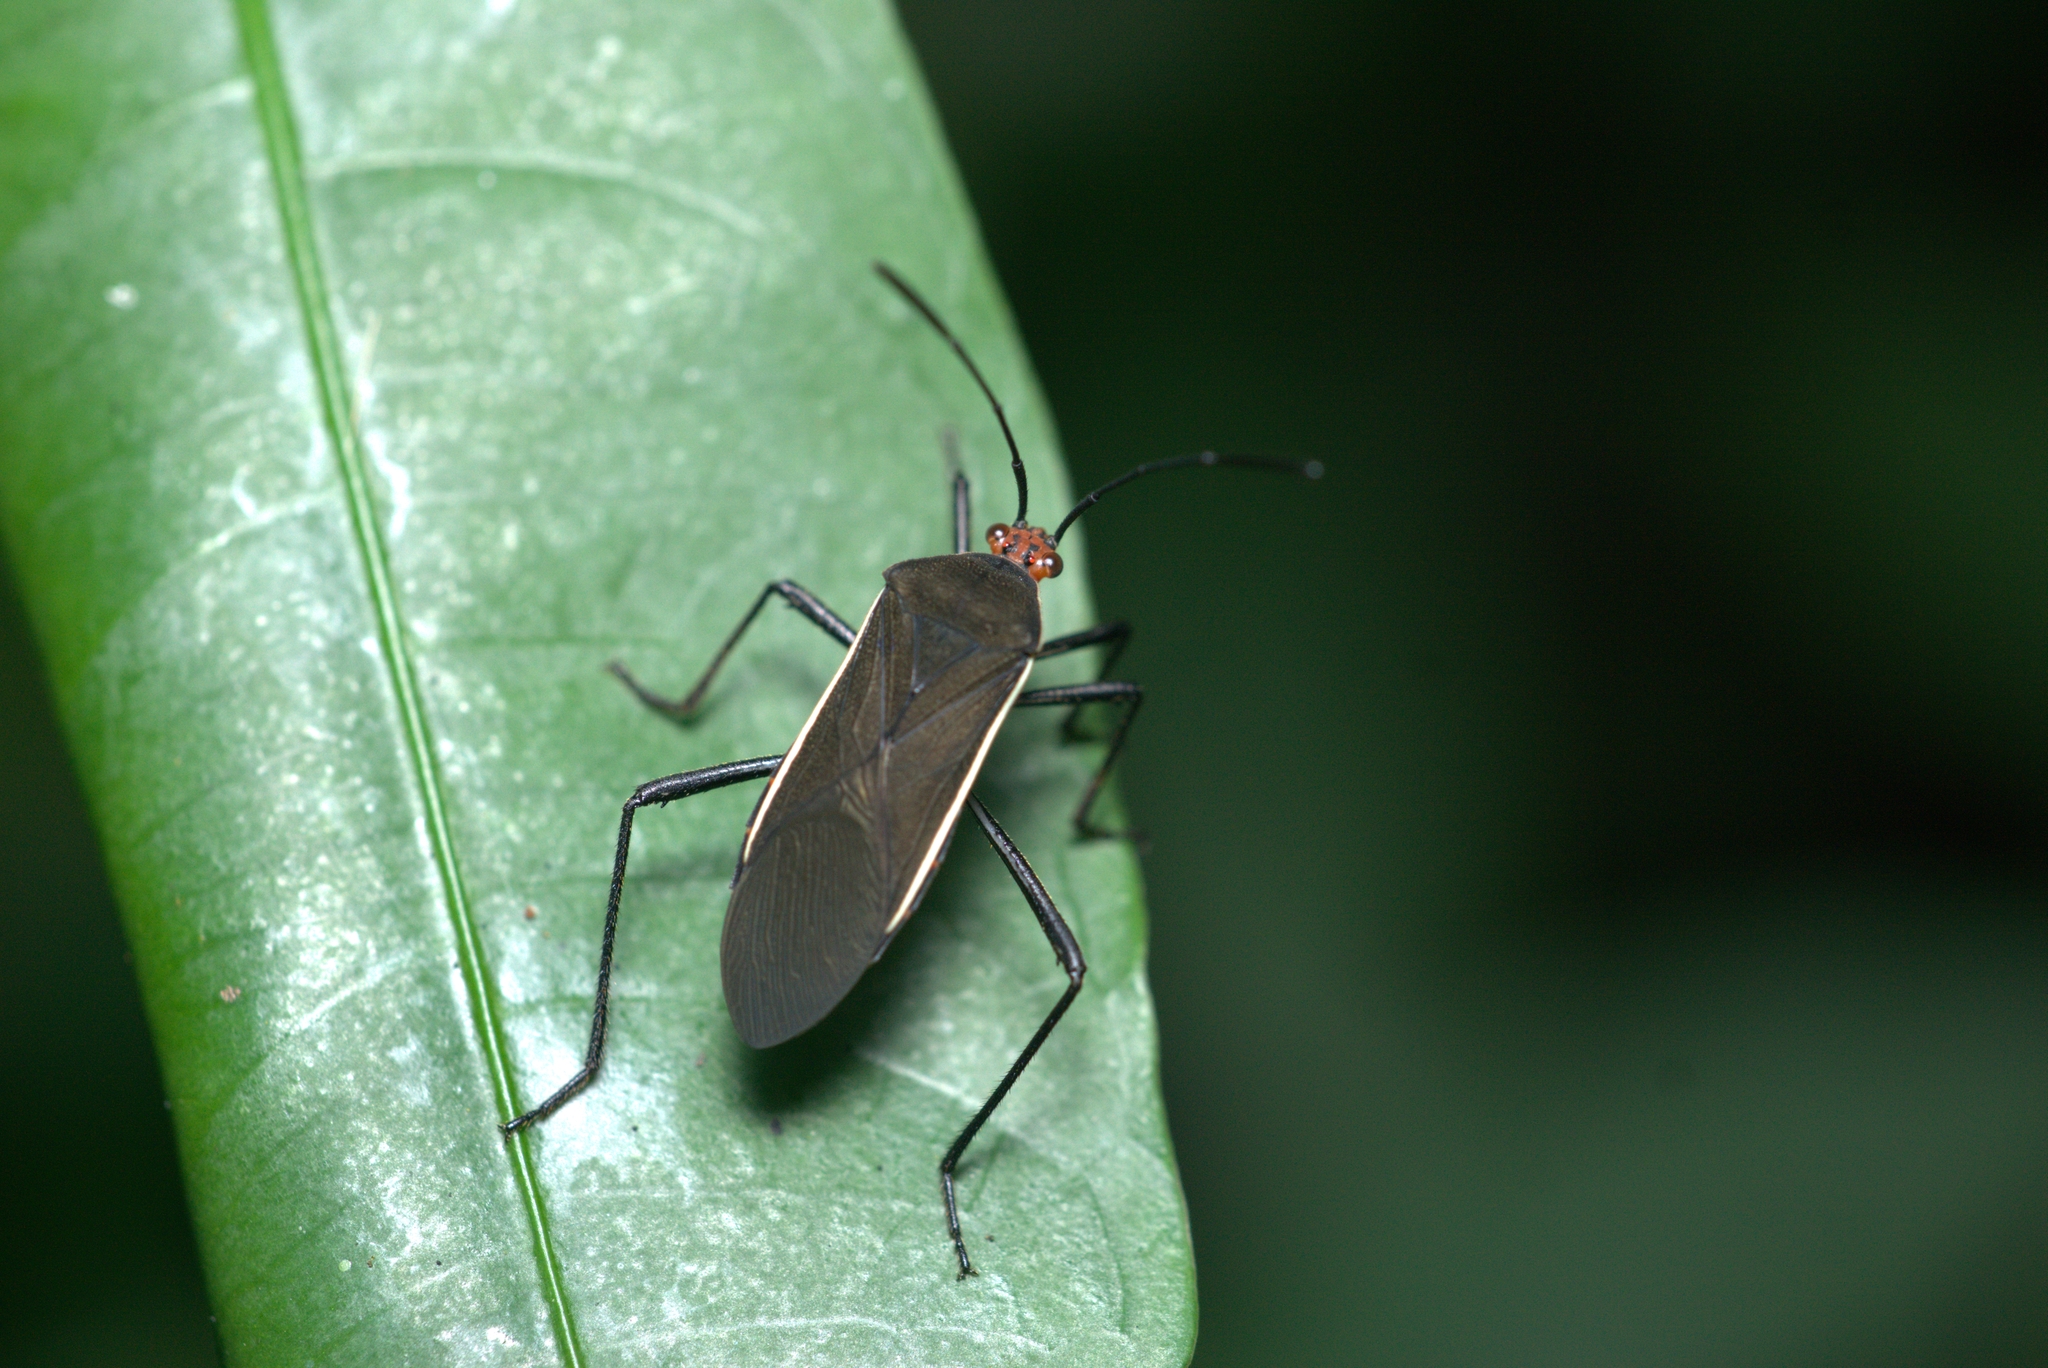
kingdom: Animalia
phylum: Arthropoda
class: Insecta
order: Hemiptera
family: Coreidae
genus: Hypselonotus
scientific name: Hypselonotus tricolor
